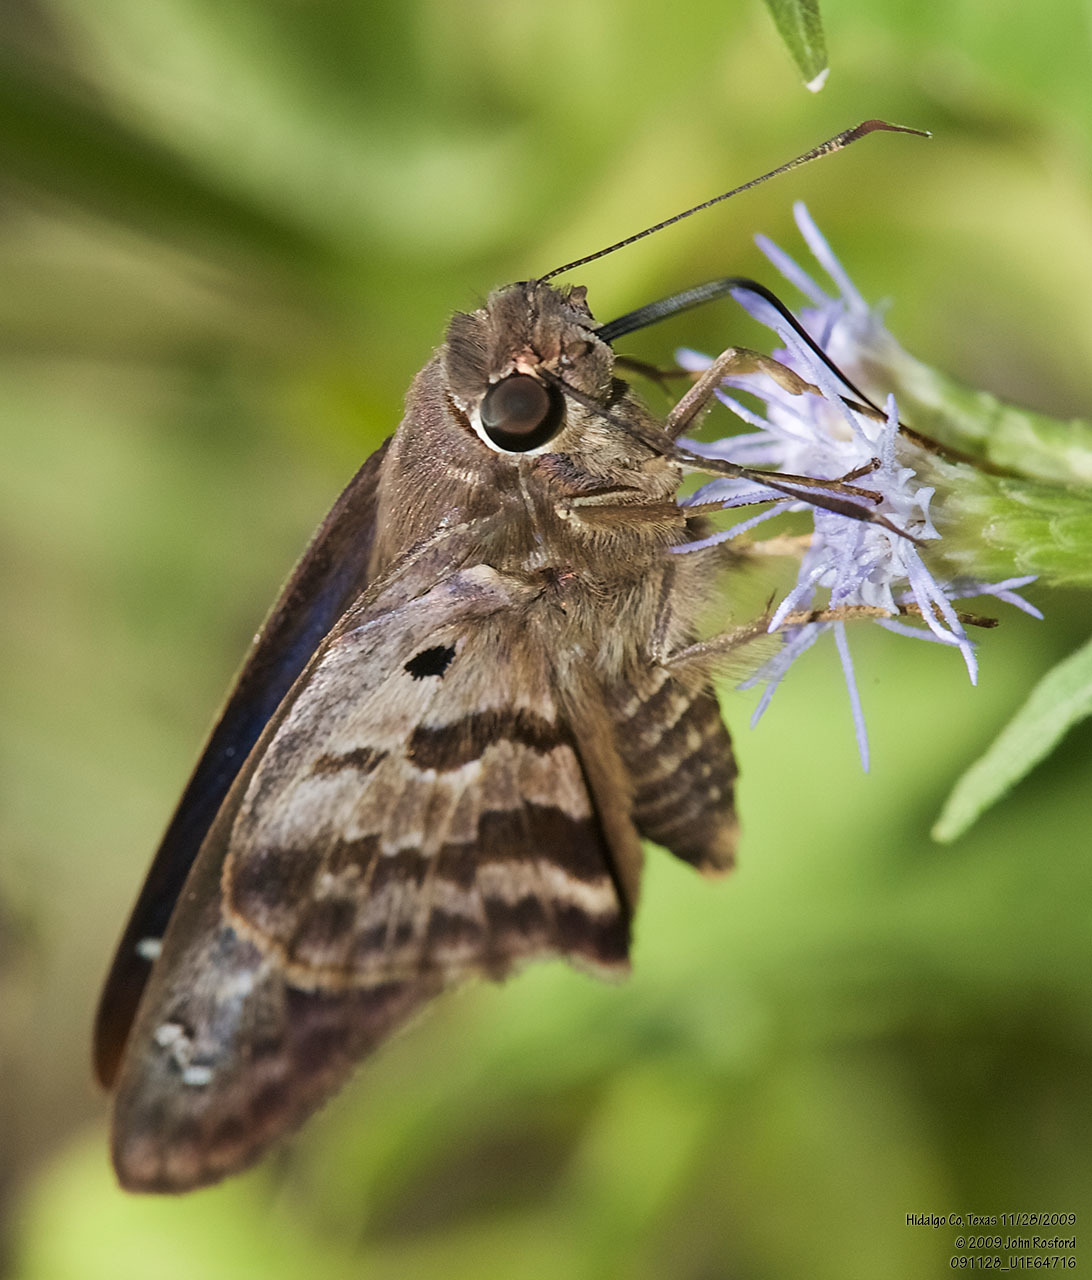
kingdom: Animalia
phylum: Arthropoda
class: Insecta
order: Lepidoptera
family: Hesperiidae
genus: Polygonus
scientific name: Polygonus leo
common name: Hammoch skipper
